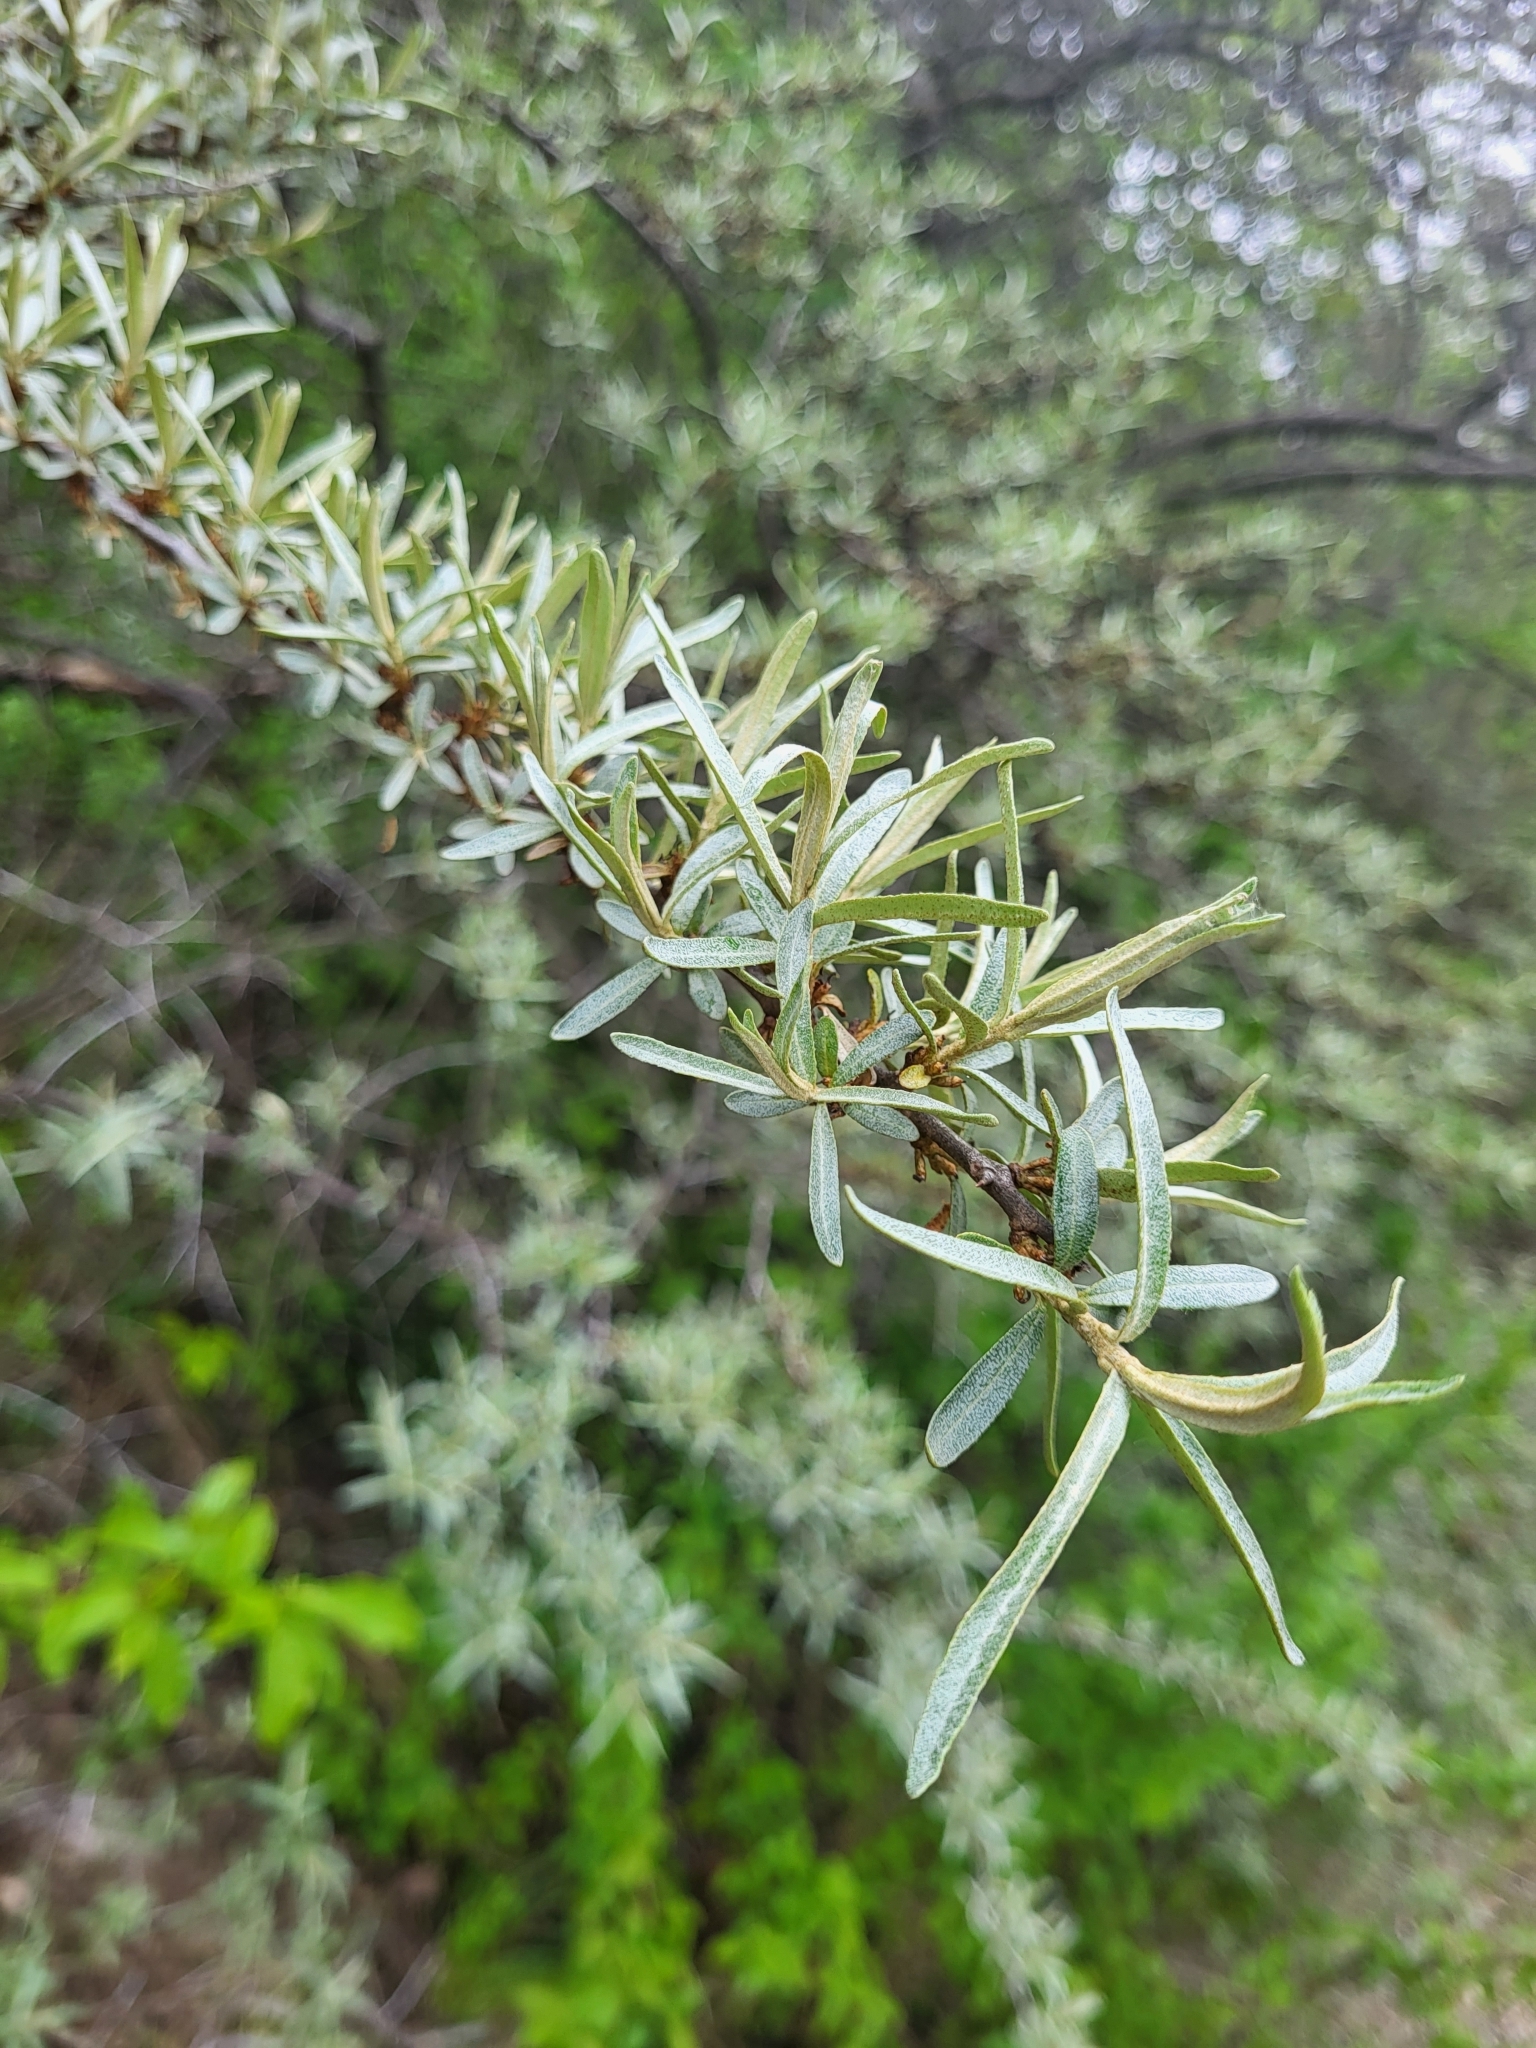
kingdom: Plantae
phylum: Tracheophyta
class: Magnoliopsida
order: Rosales
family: Elaeagnaceae
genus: Hippophae
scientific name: Hippophae rhamnoides
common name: Sea-buckthorn
